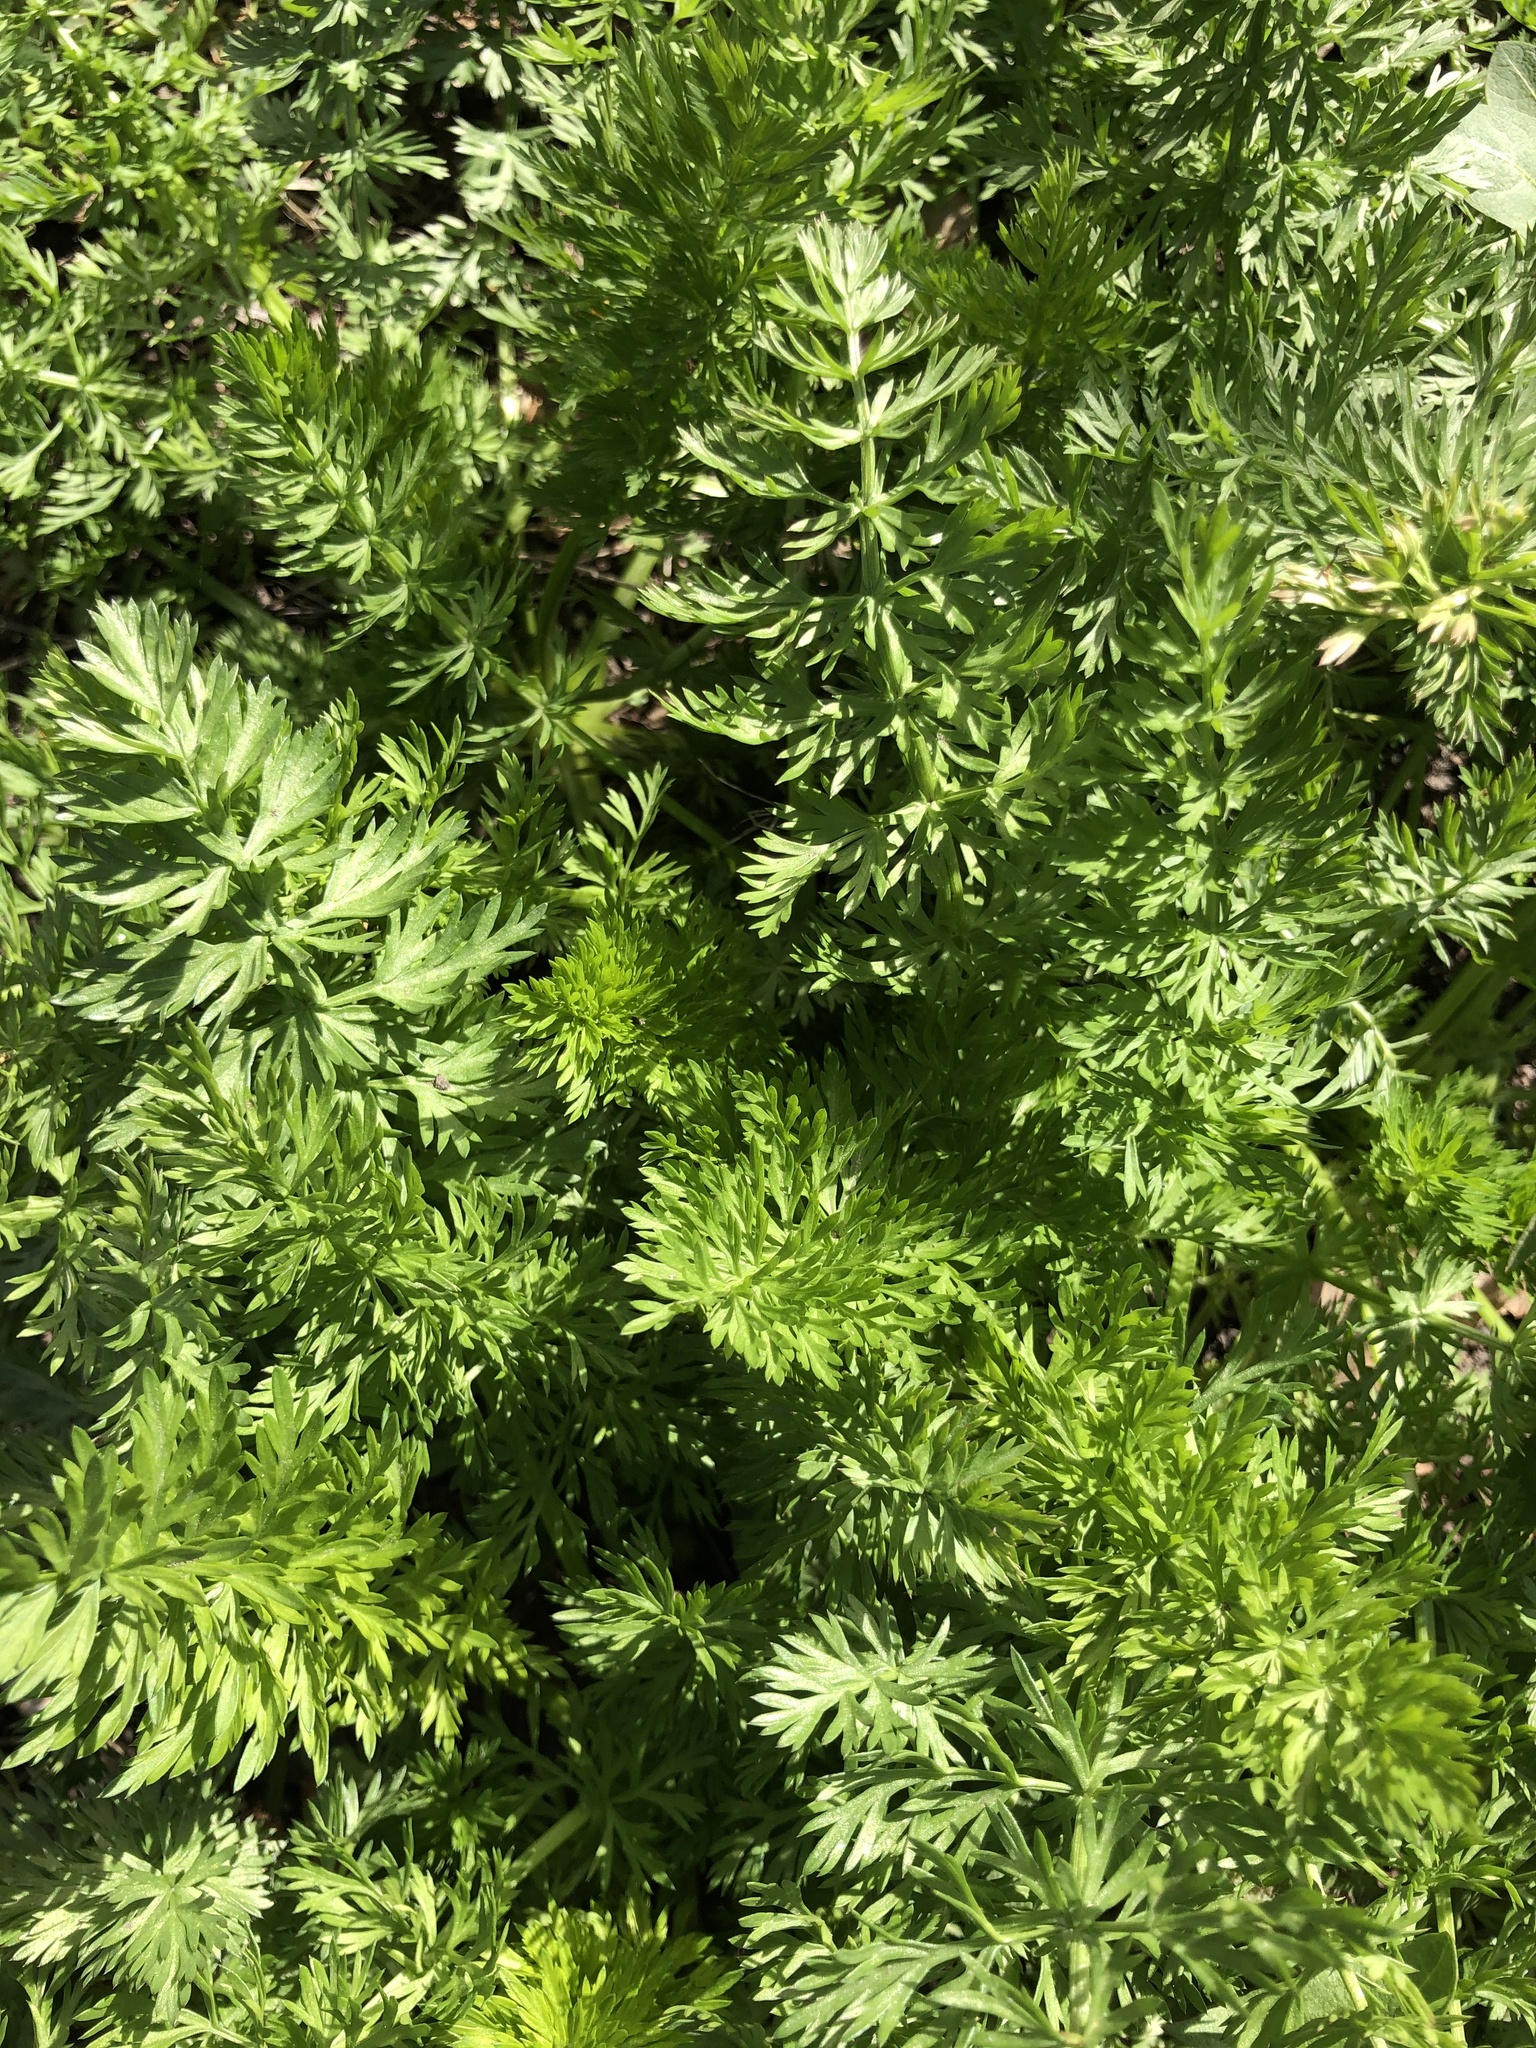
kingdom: Plantae
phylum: Tracheophyta
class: Magnoliopsida
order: Apiales
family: Apiaceae
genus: Carum
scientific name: Carum carvi
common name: Caraway
